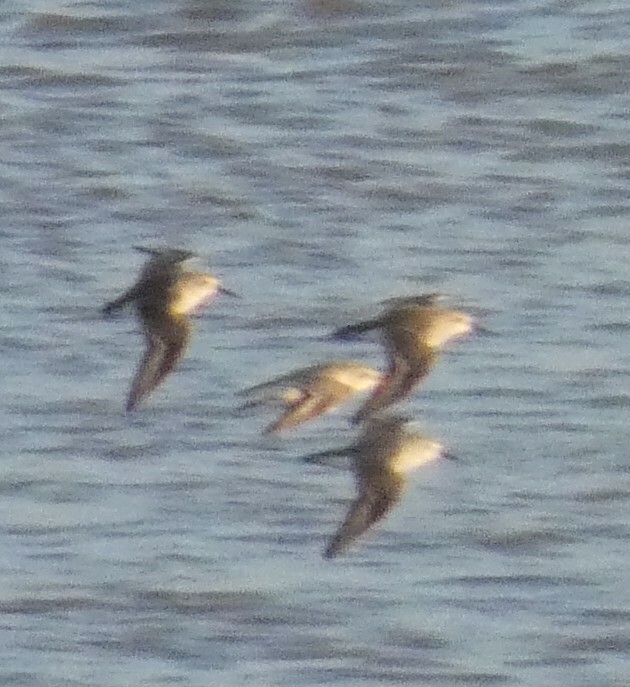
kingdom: Animalia
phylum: Chordata
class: Aves
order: Charadriiformes
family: Scolopacidae
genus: Calidris
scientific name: Calidris alpina
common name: Dunlin
